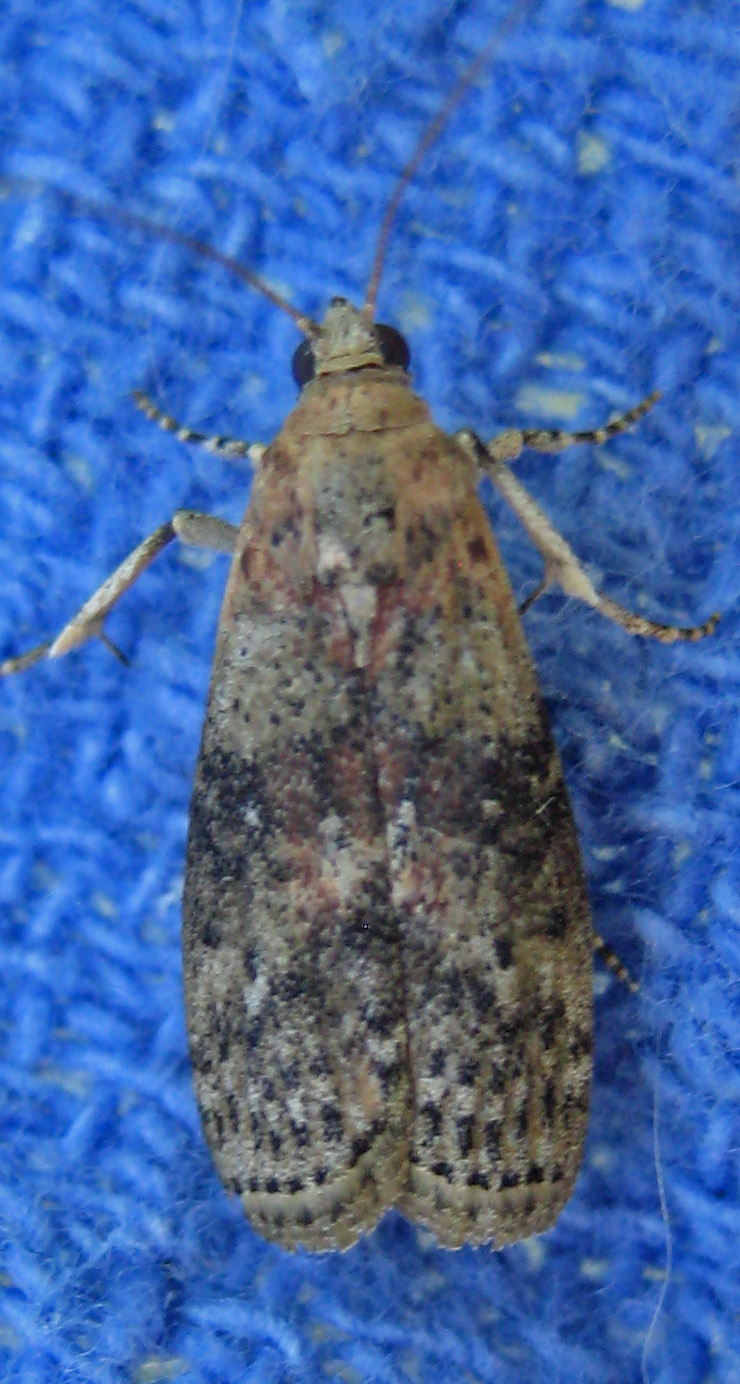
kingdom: Animalia
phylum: Arthropoda
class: Insecta
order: Lepidoptera
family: Pyralidae
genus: Sciota
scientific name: Sciota celtidella
